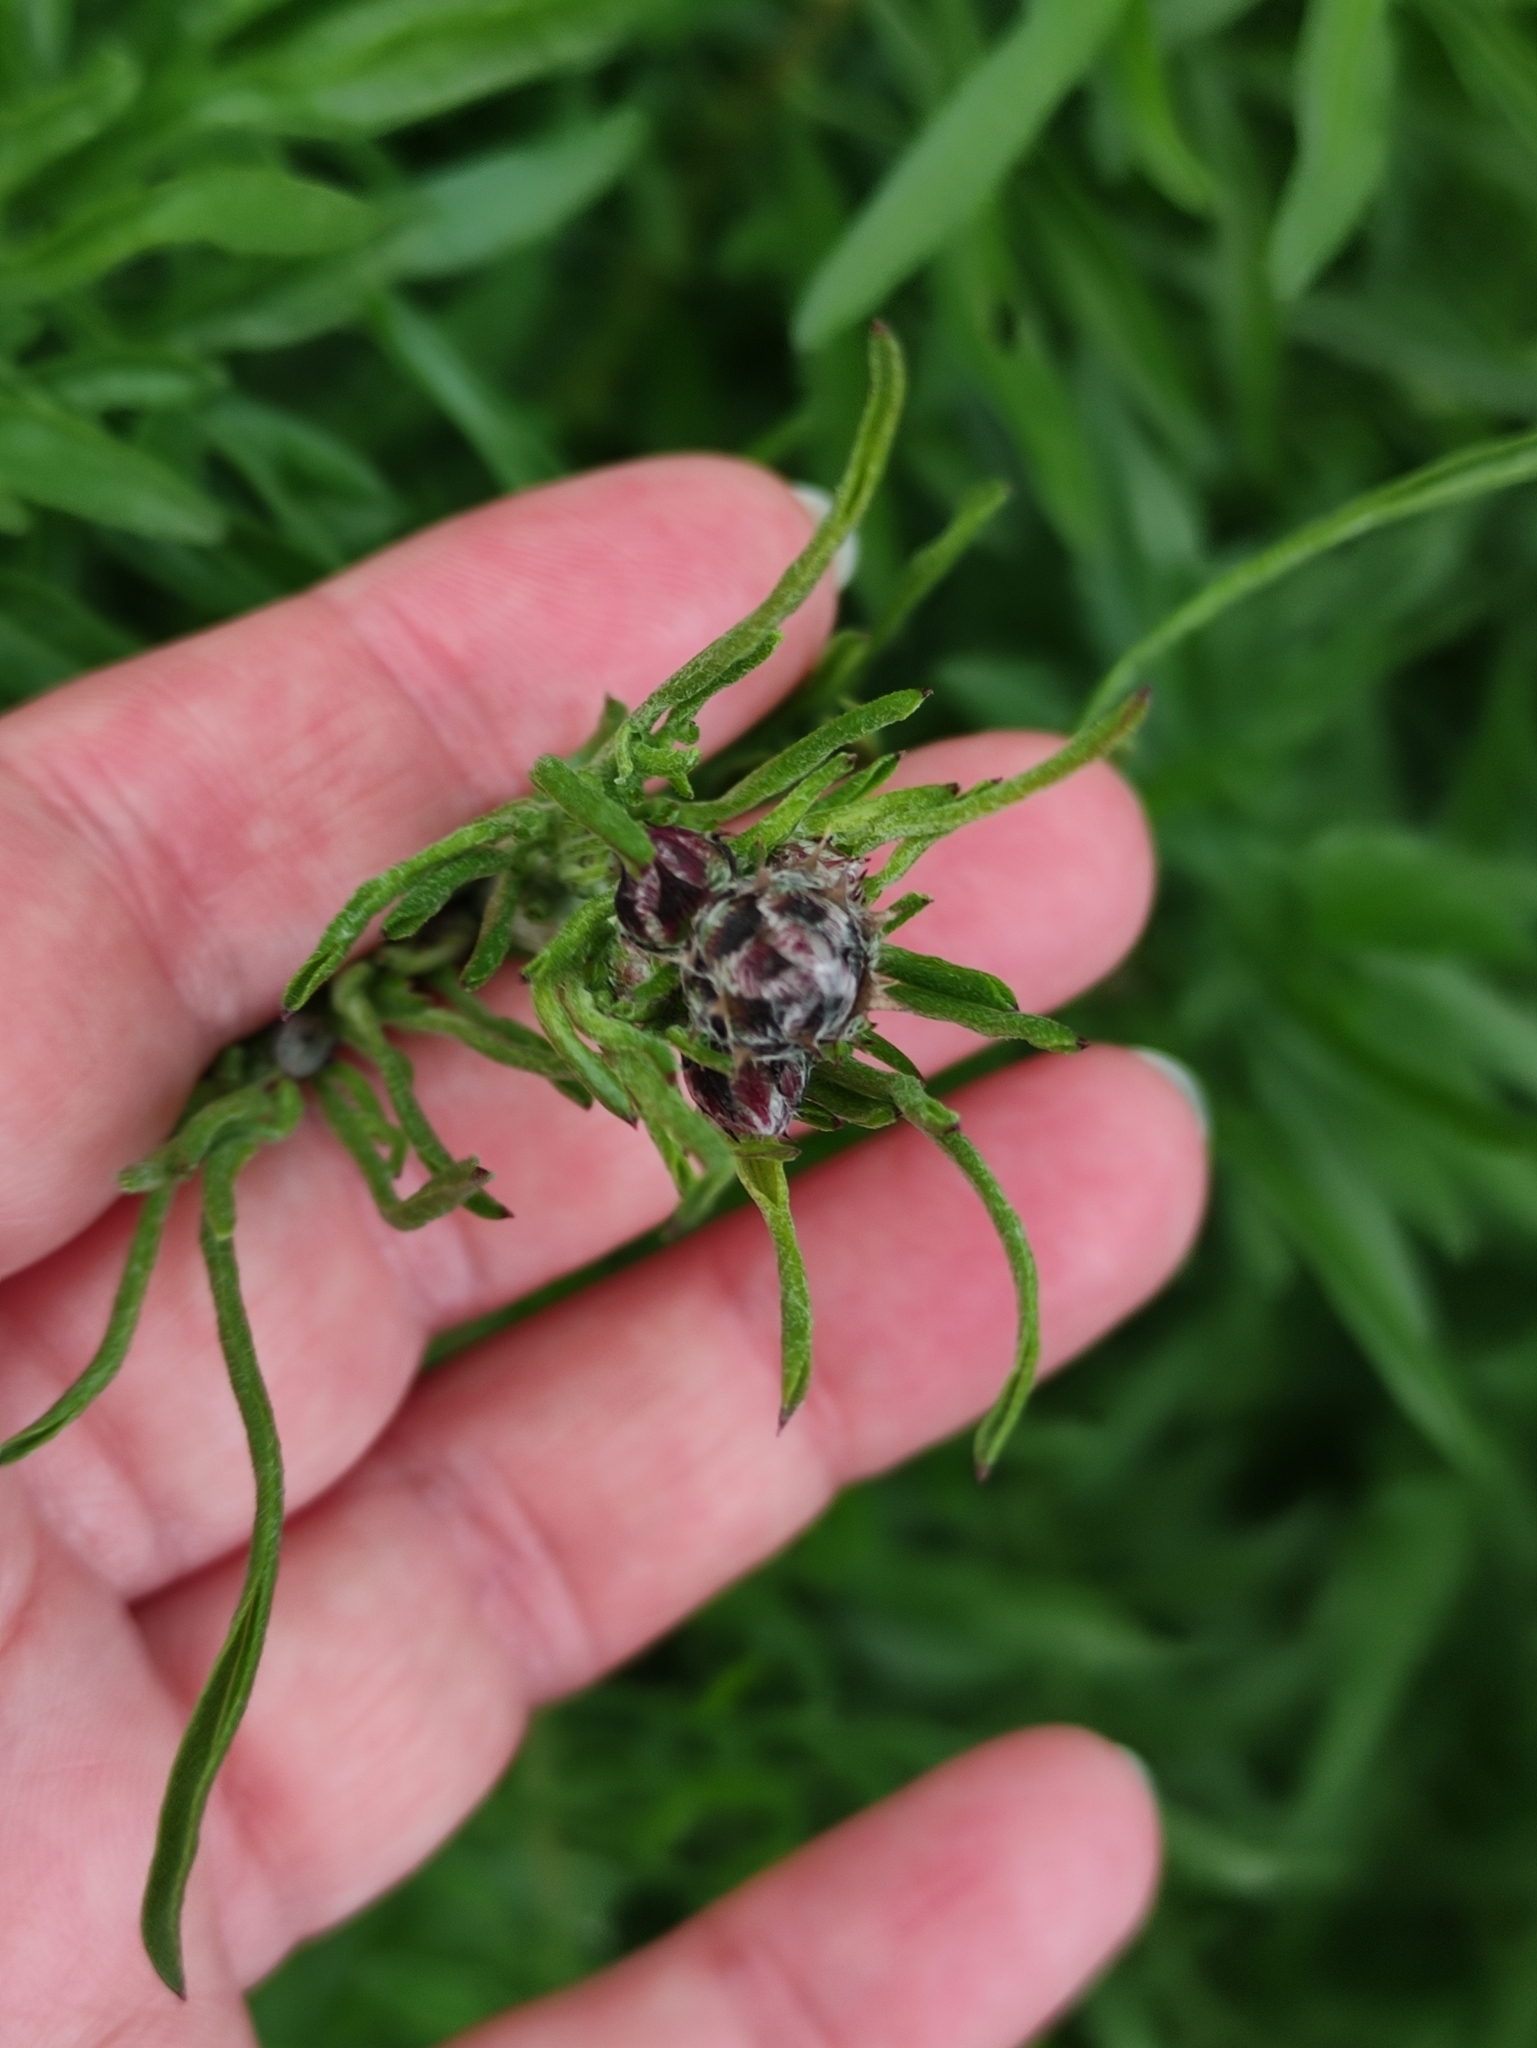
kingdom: Plantae
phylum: Tracheophyta
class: Magnoliopsida
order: Asterales
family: Asteraceae
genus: Centaurea
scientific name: Centaurea scabiosa
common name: Greater knapweed
